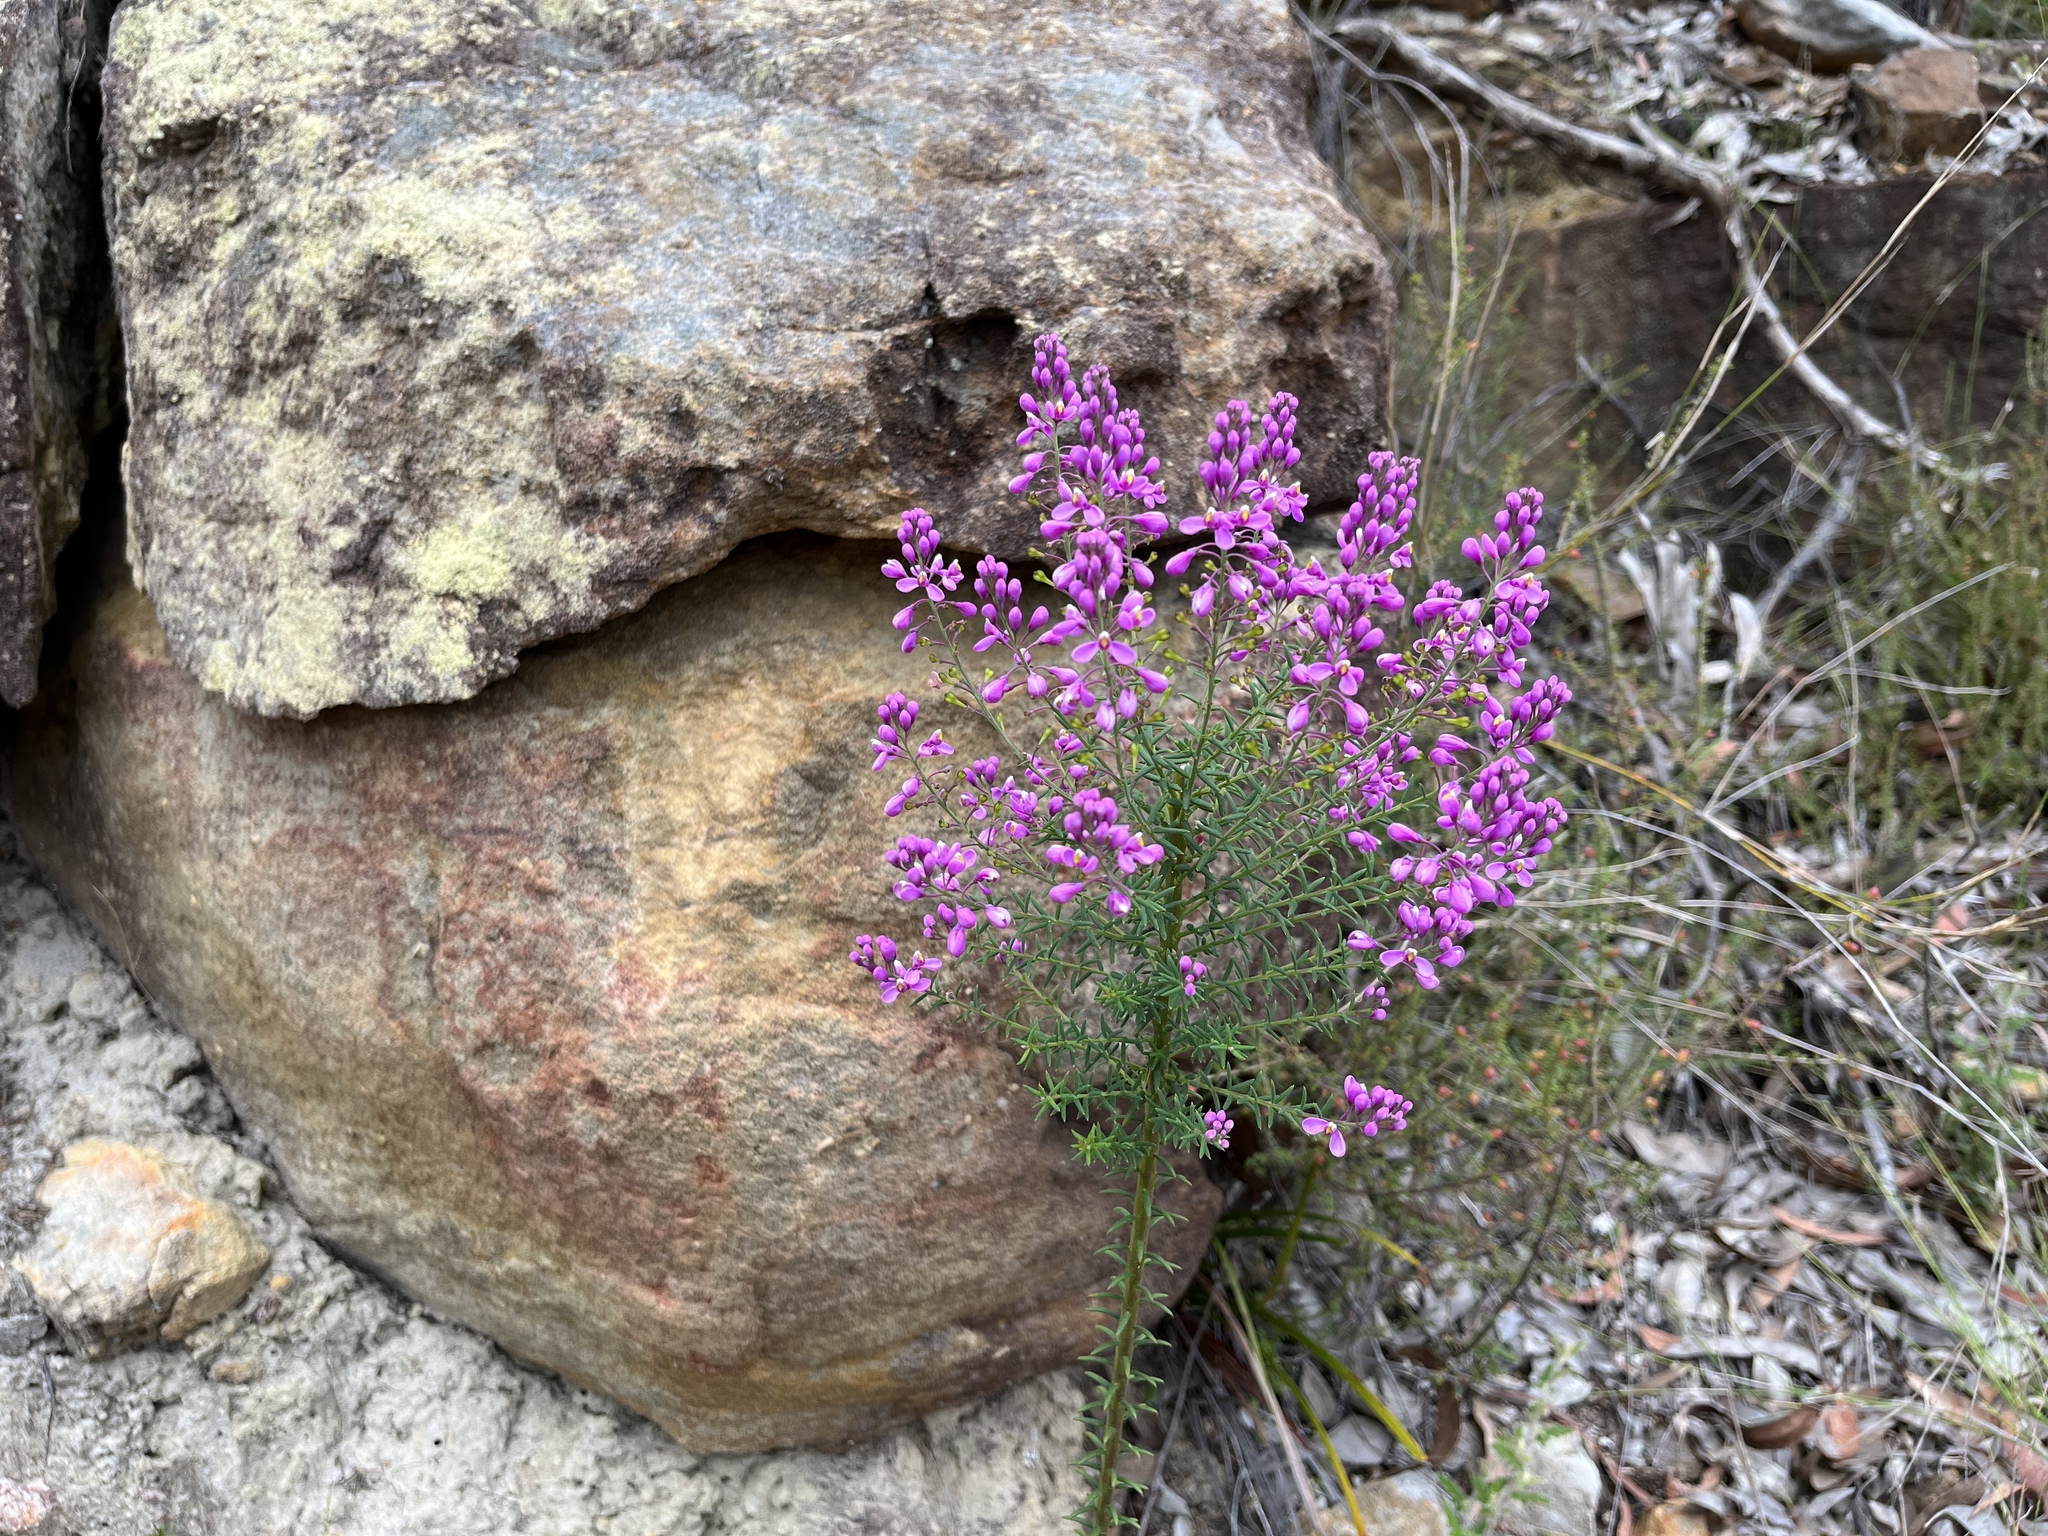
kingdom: Plantae
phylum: Tracheophyta
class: Magnoliopsida
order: Fabales
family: Polygalaceae
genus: Comesperma
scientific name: Comesperma ericinum
